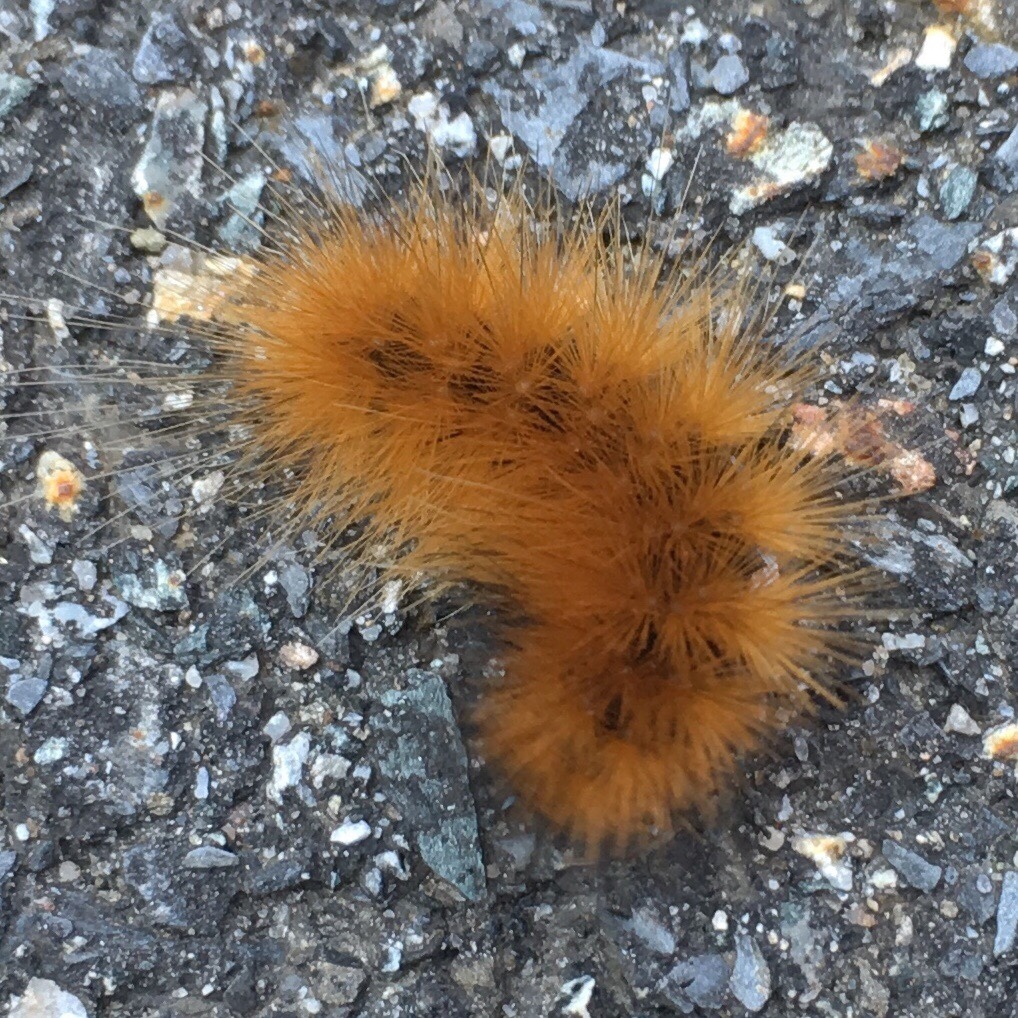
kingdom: Animalia
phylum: Arthropoda
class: Insecta
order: Lepidoptera
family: Erebidae
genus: Spilosoma
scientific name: Spilosoma virginica
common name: Virginia tiger moth
